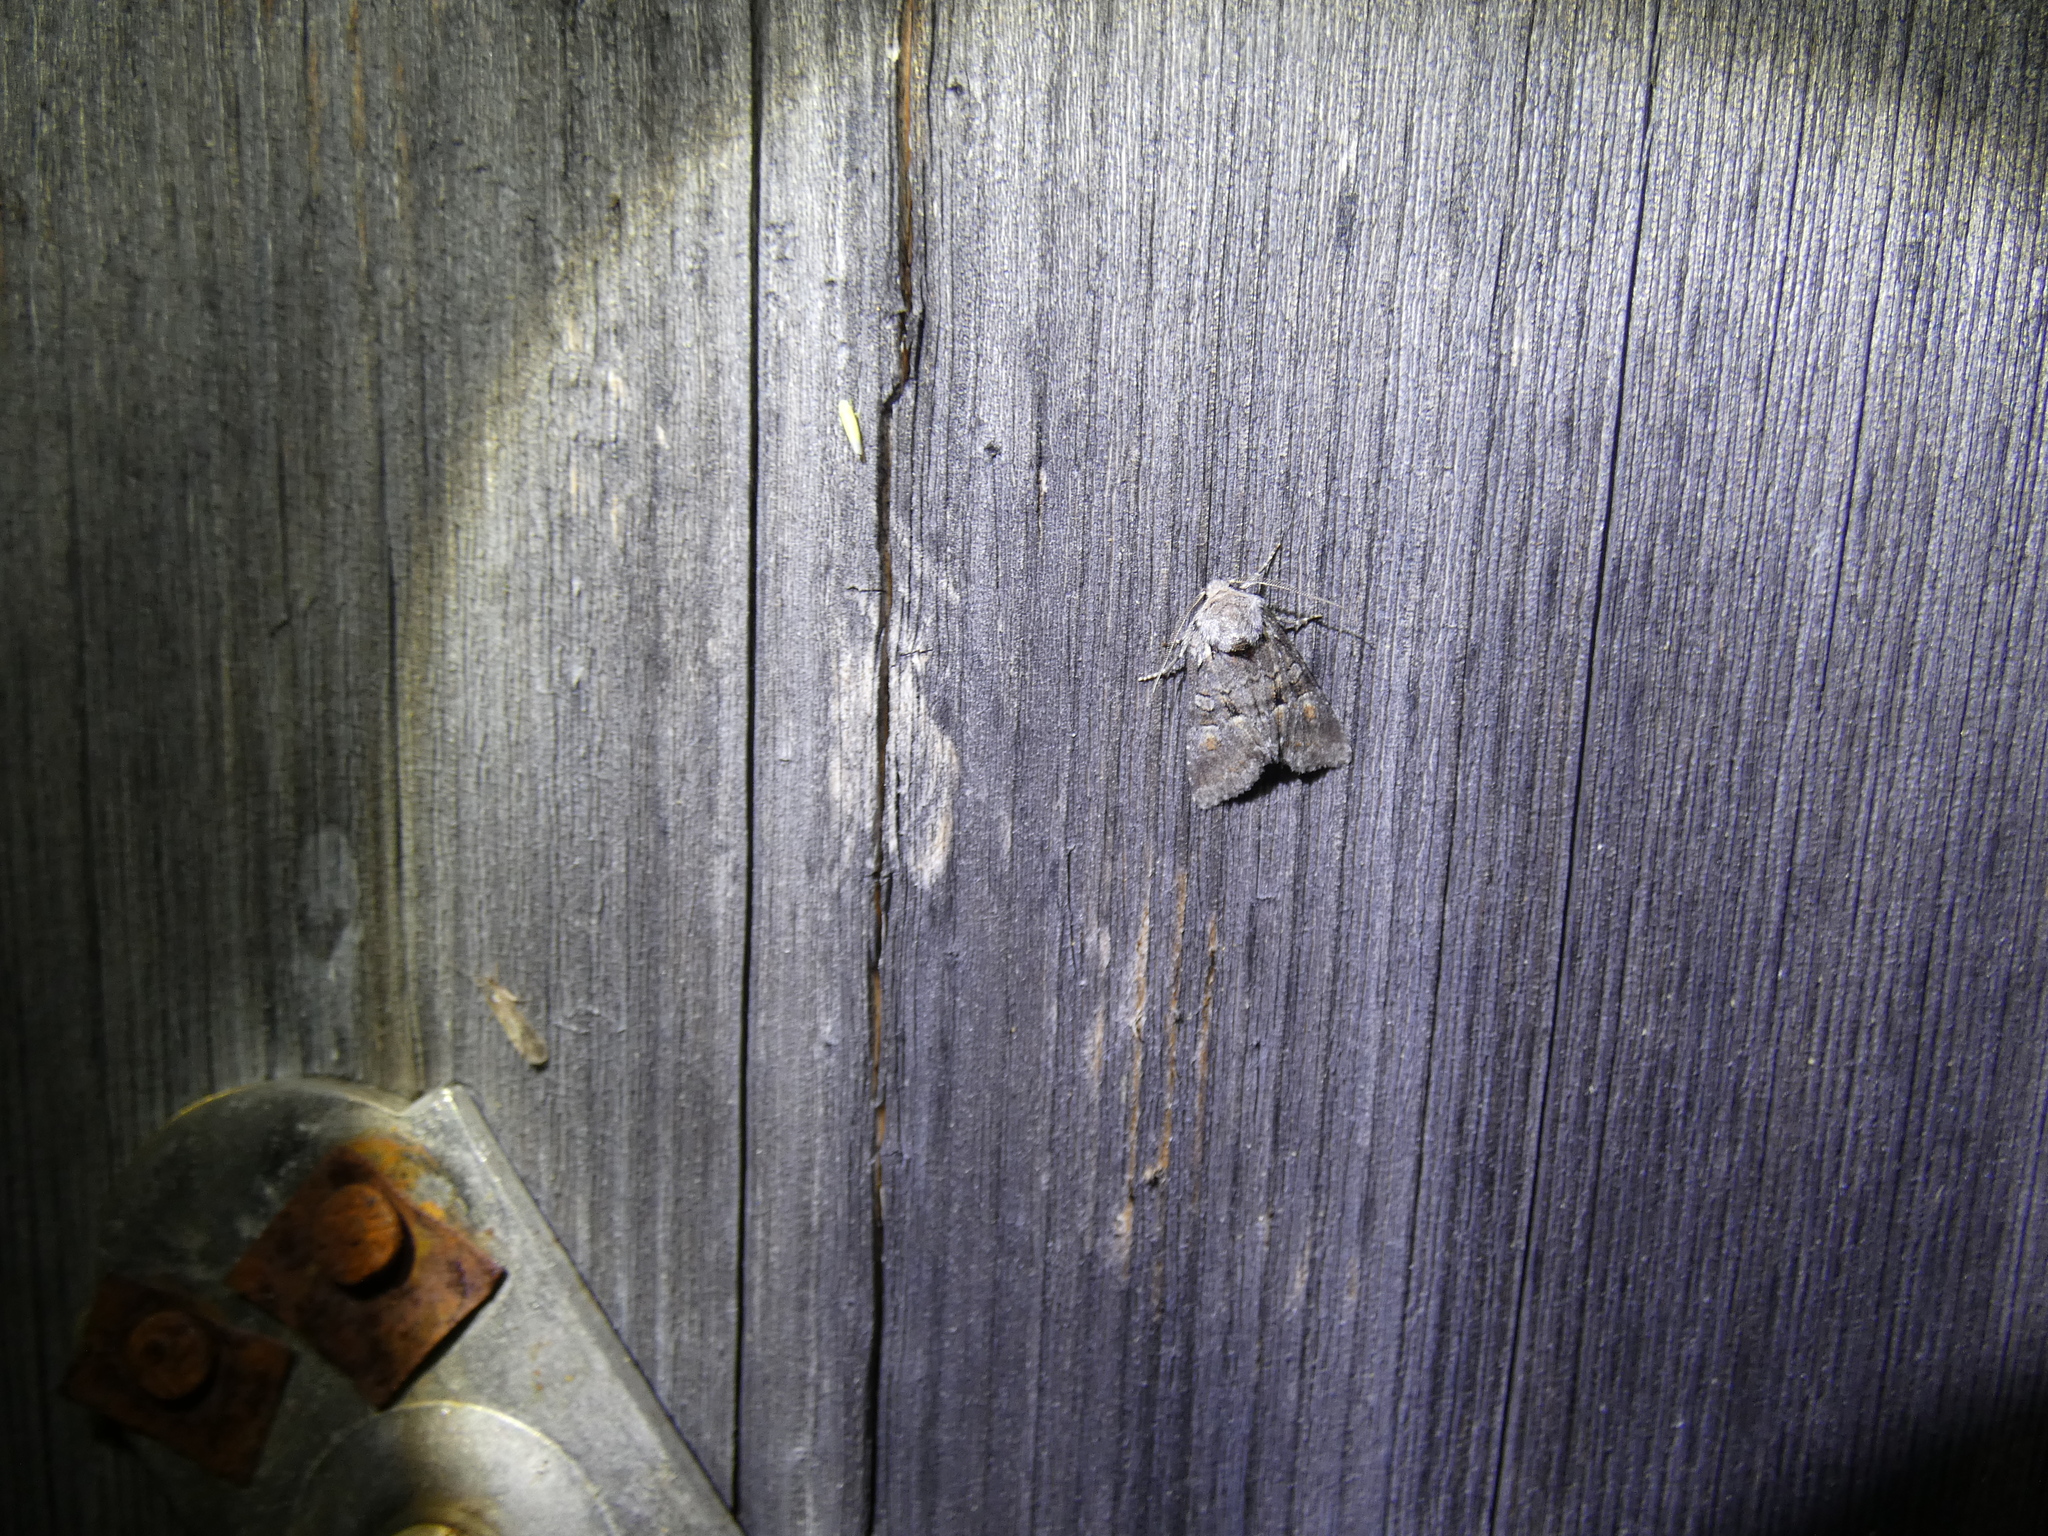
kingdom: Animalia
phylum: Arthropoda
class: Insecta
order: Lepidoptera
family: Noctuidae
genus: Brachylomia
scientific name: Brachylomia viminalis
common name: Minor shoulder-knot
